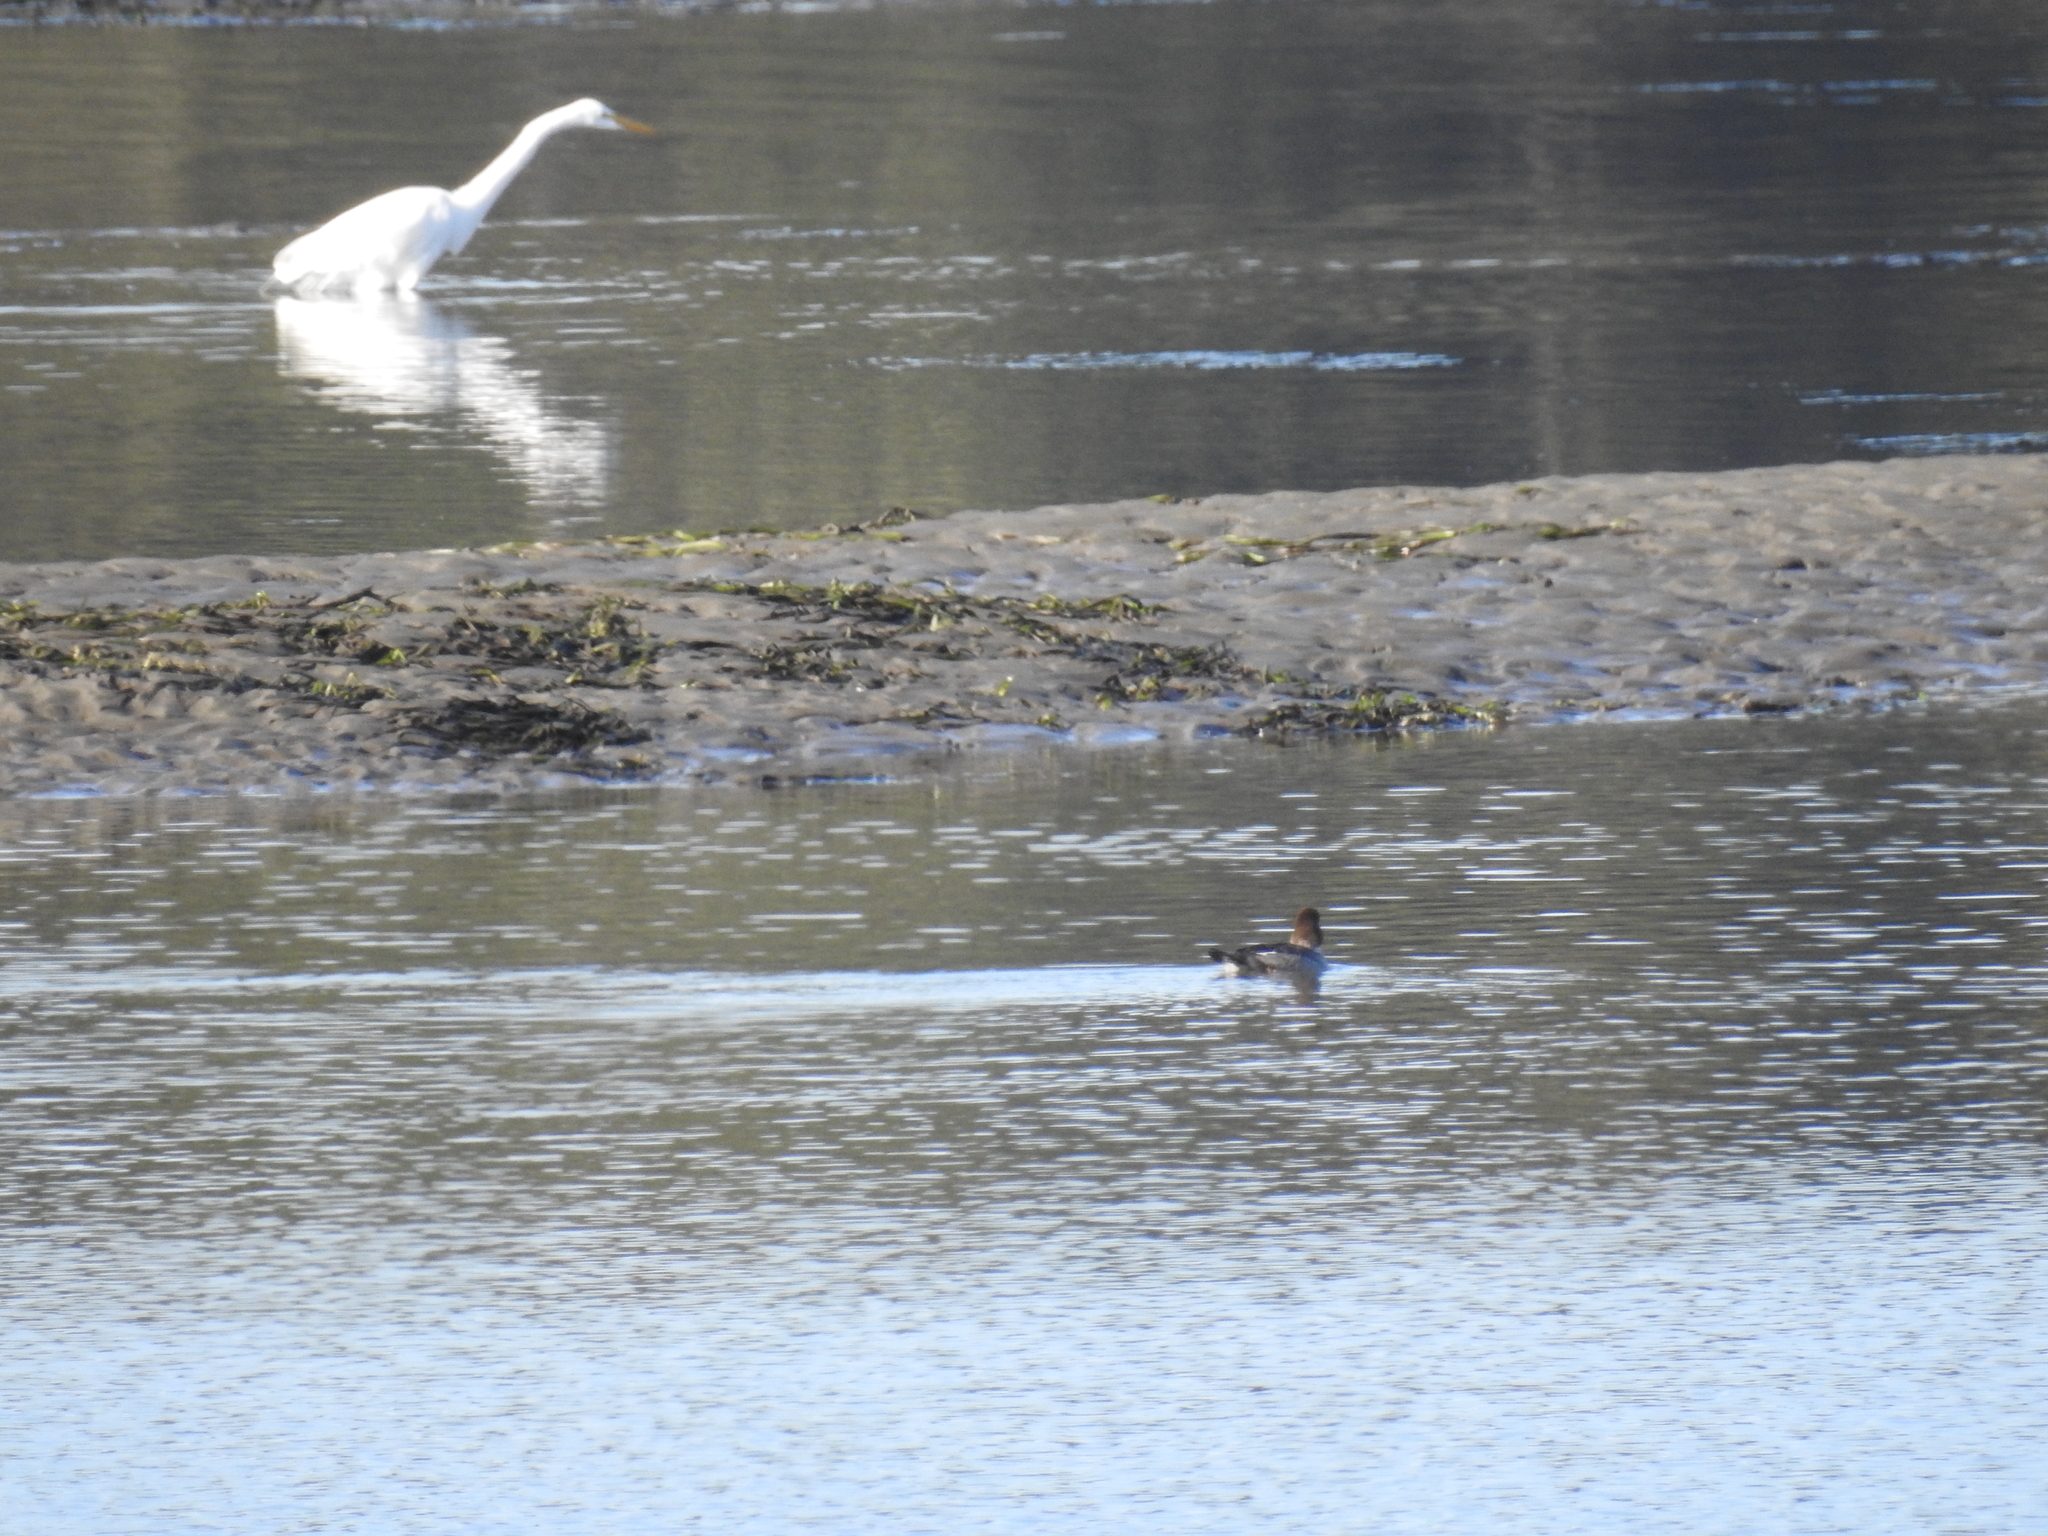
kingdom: Animalia
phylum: Chordata
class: Aves
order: Pelecaniformes
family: Ardeidae
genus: Ardea
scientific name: Ardea alba
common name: Great egret
